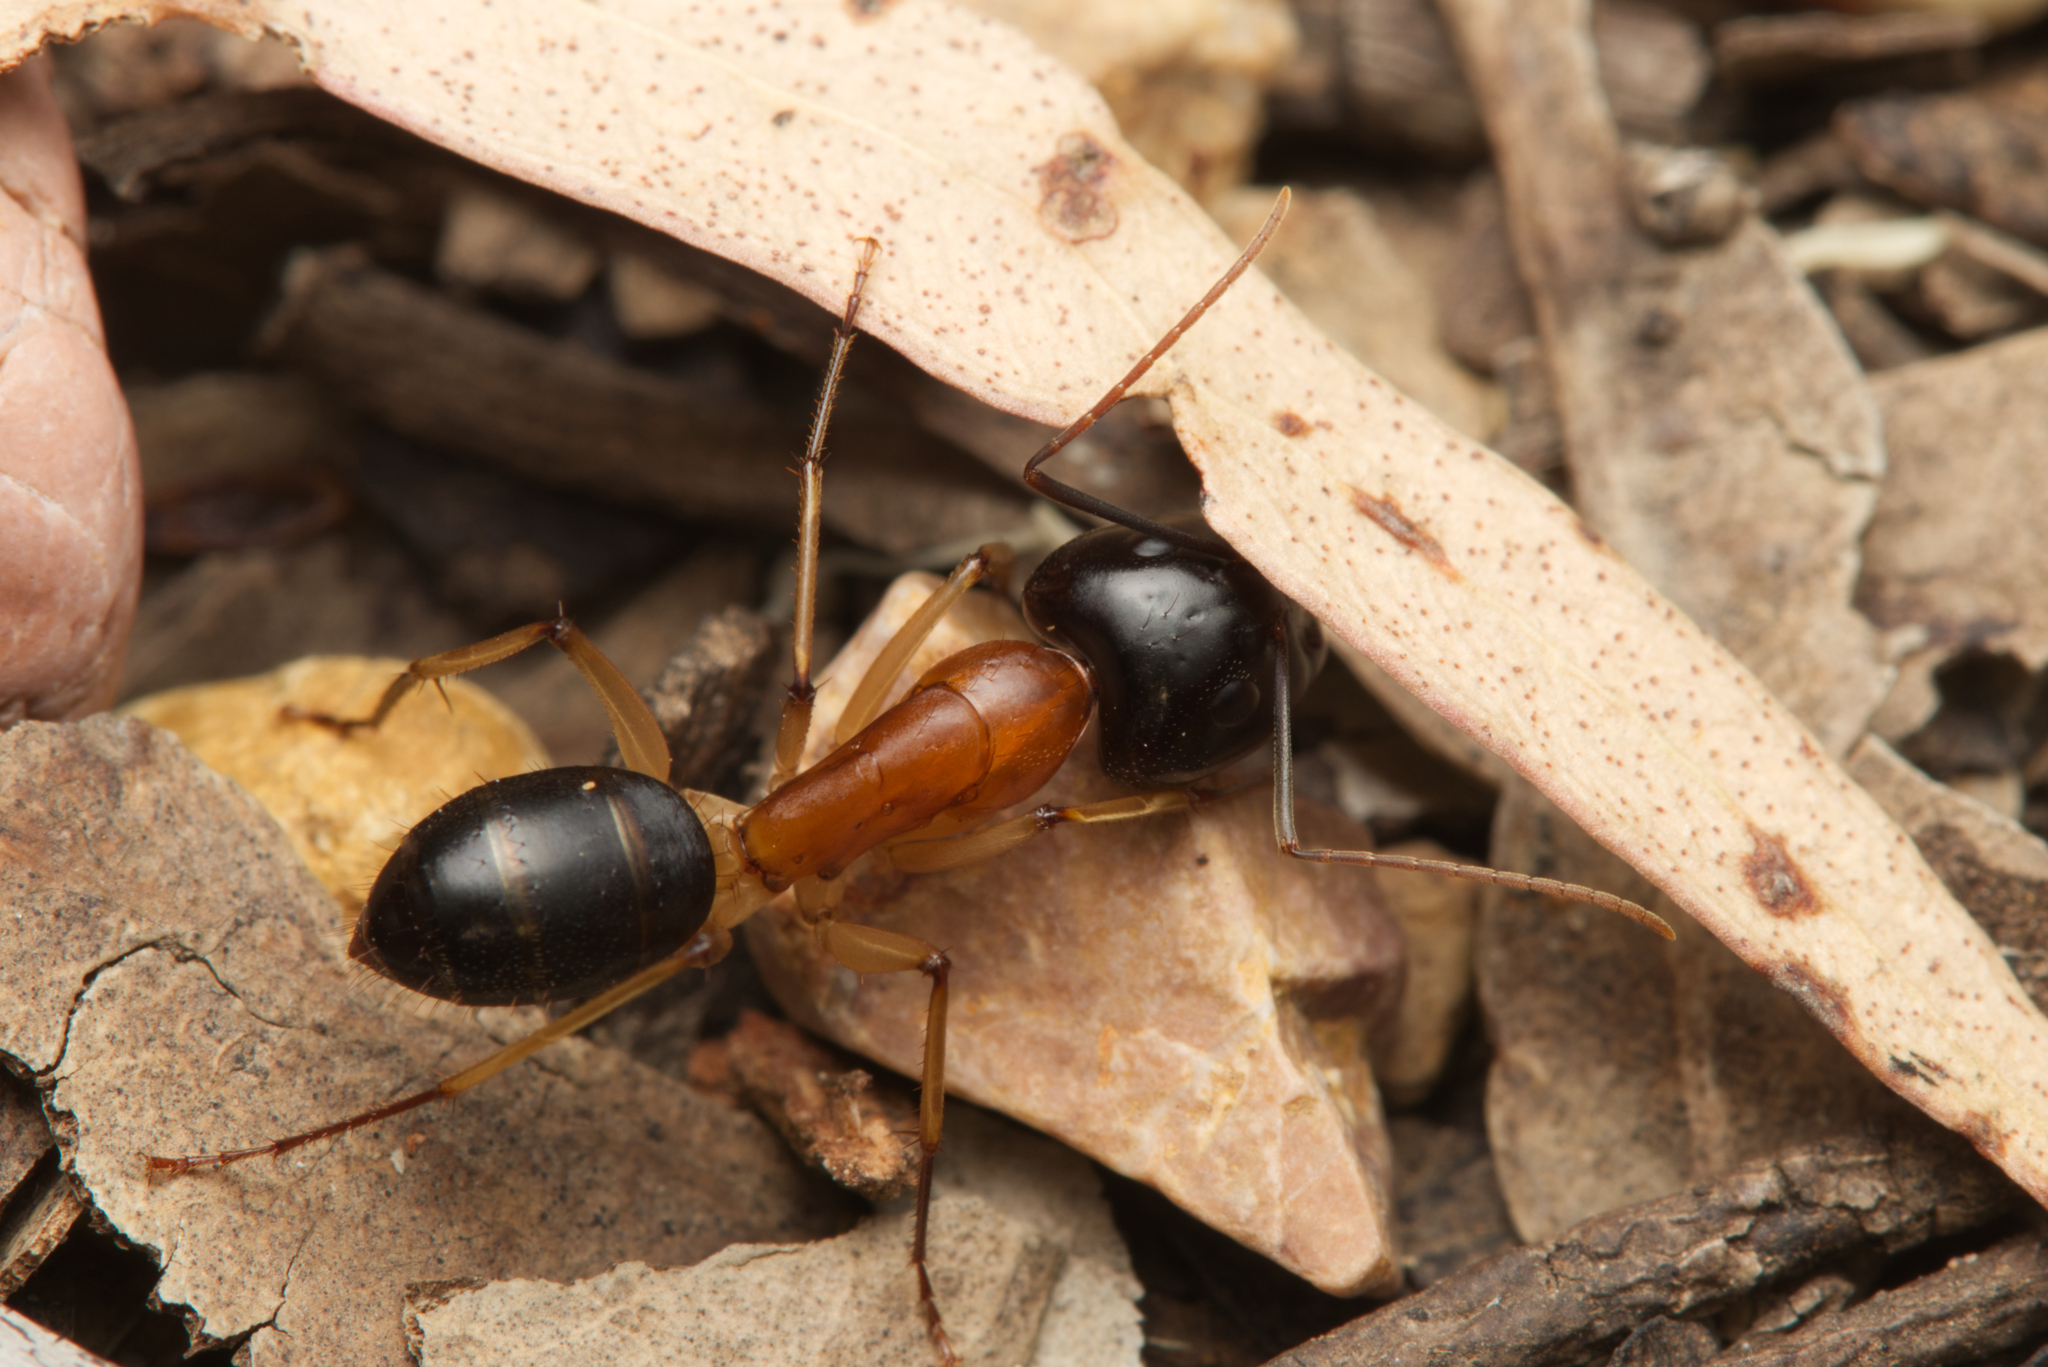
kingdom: Animalia
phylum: Arthropoda
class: Insecta
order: Hymenoptera
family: Formicidae
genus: Camponotus
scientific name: Camponotus nigriceps
